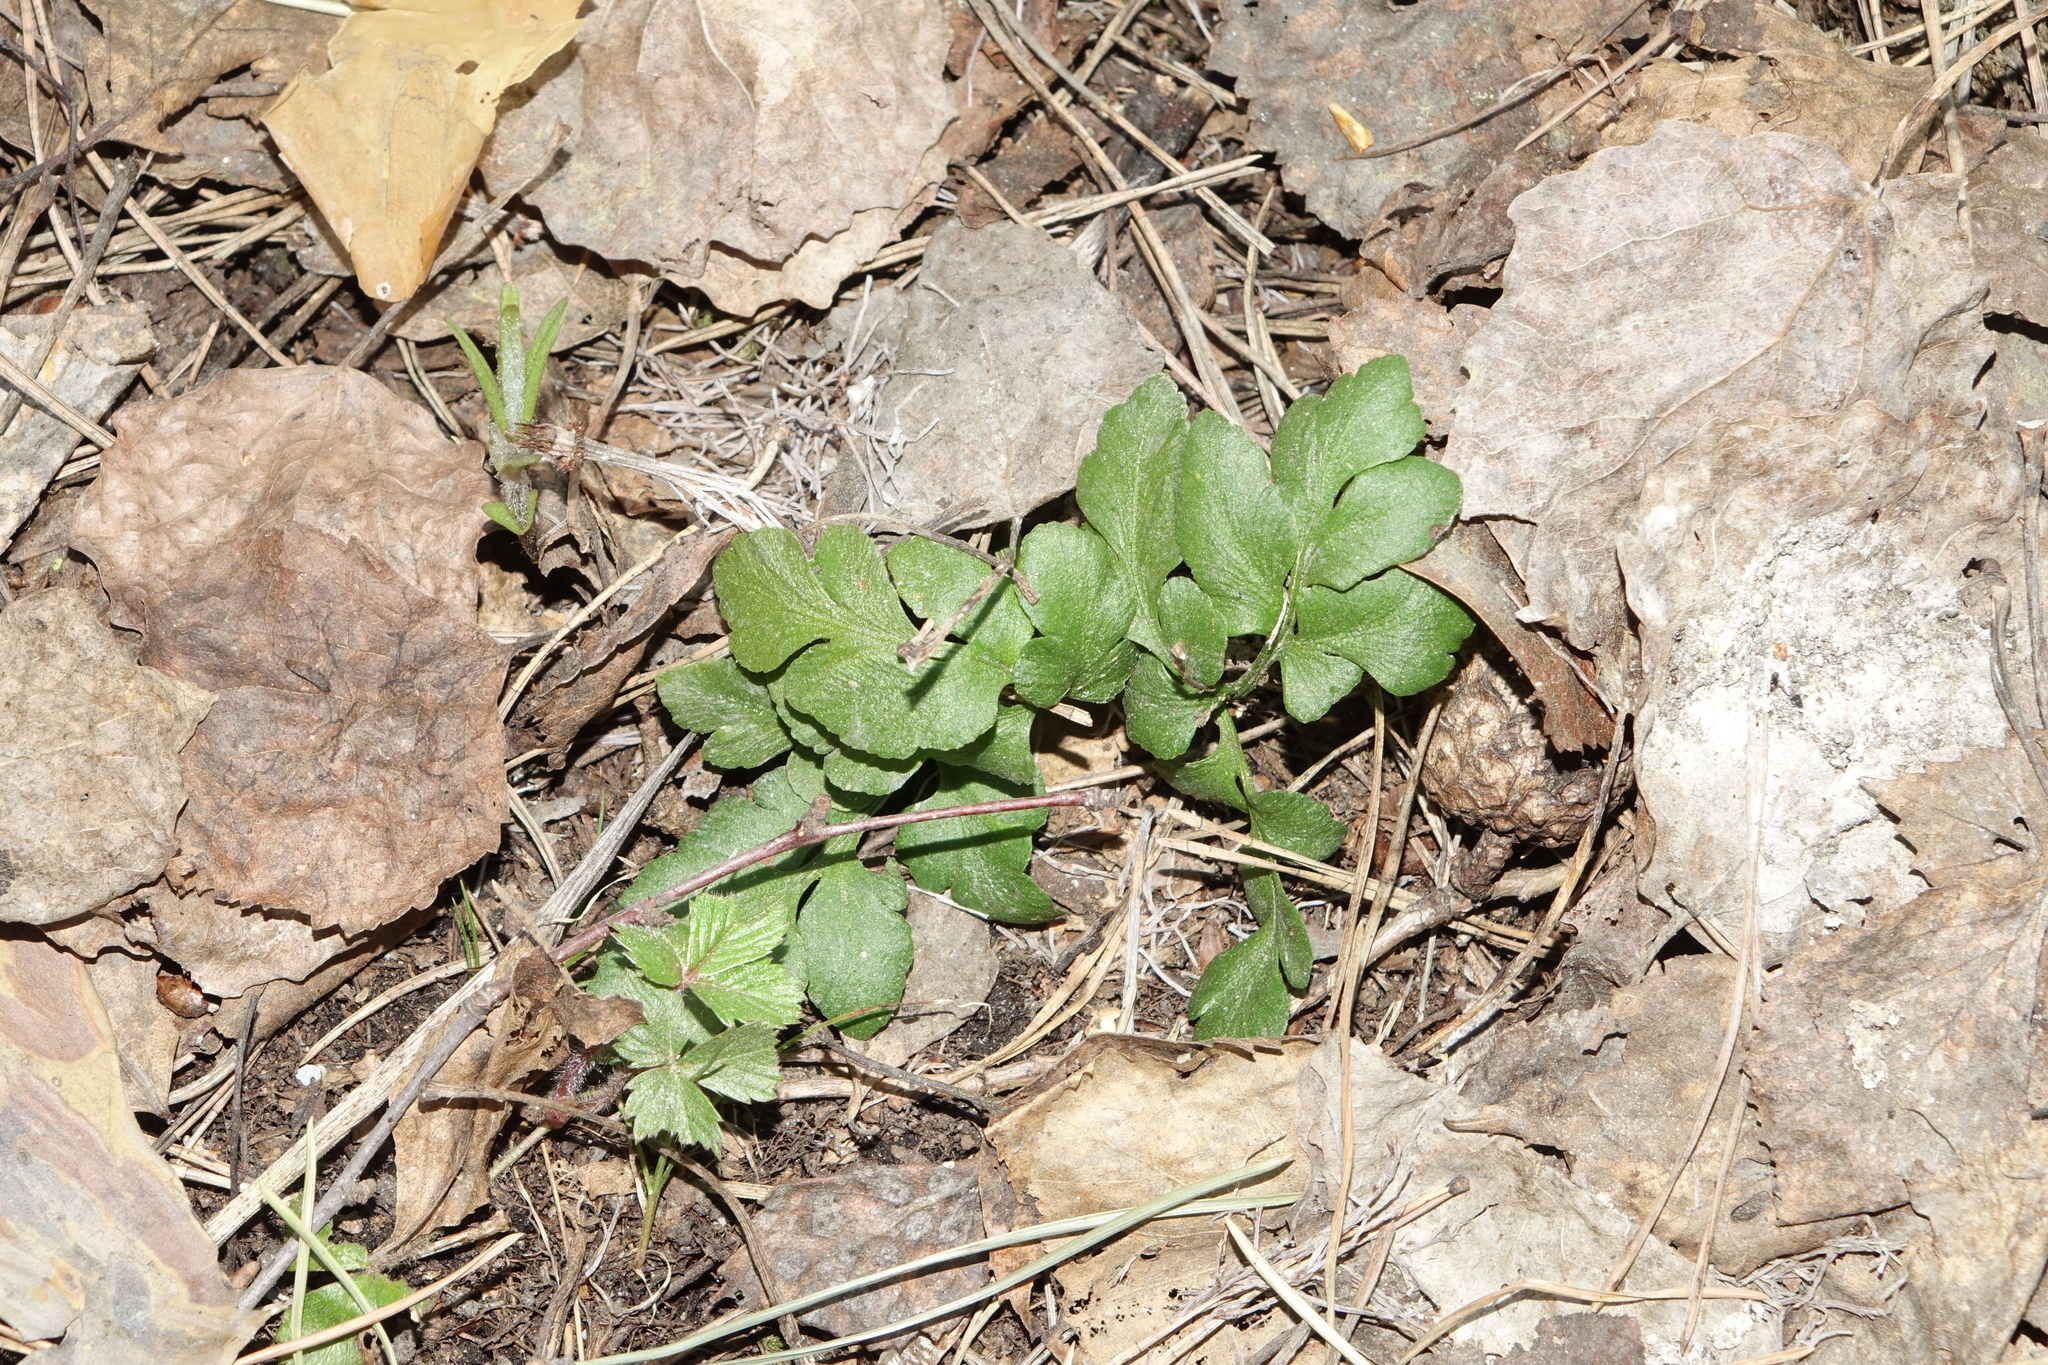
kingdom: Plantae
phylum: Tracheophyta
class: Polypodiopsida
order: Ophioglossales
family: Ophioglossaceae
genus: Sceptridium
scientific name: Sceptridium multifidum
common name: Leathery grape fern
